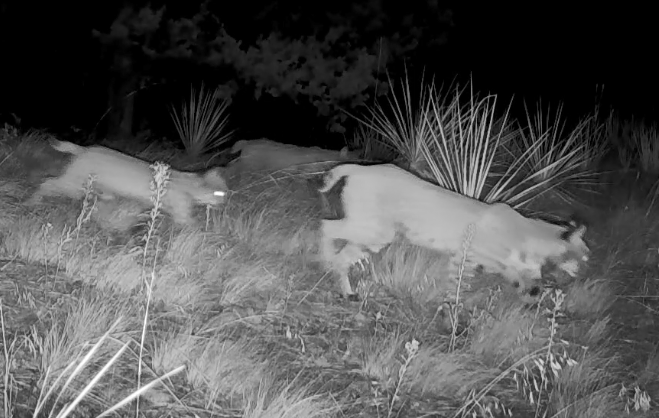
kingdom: Animalia
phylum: Chordata
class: Mammalia
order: Carnivora
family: Felidae
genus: Lynx
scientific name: Lynx rufus
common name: Bobcat
